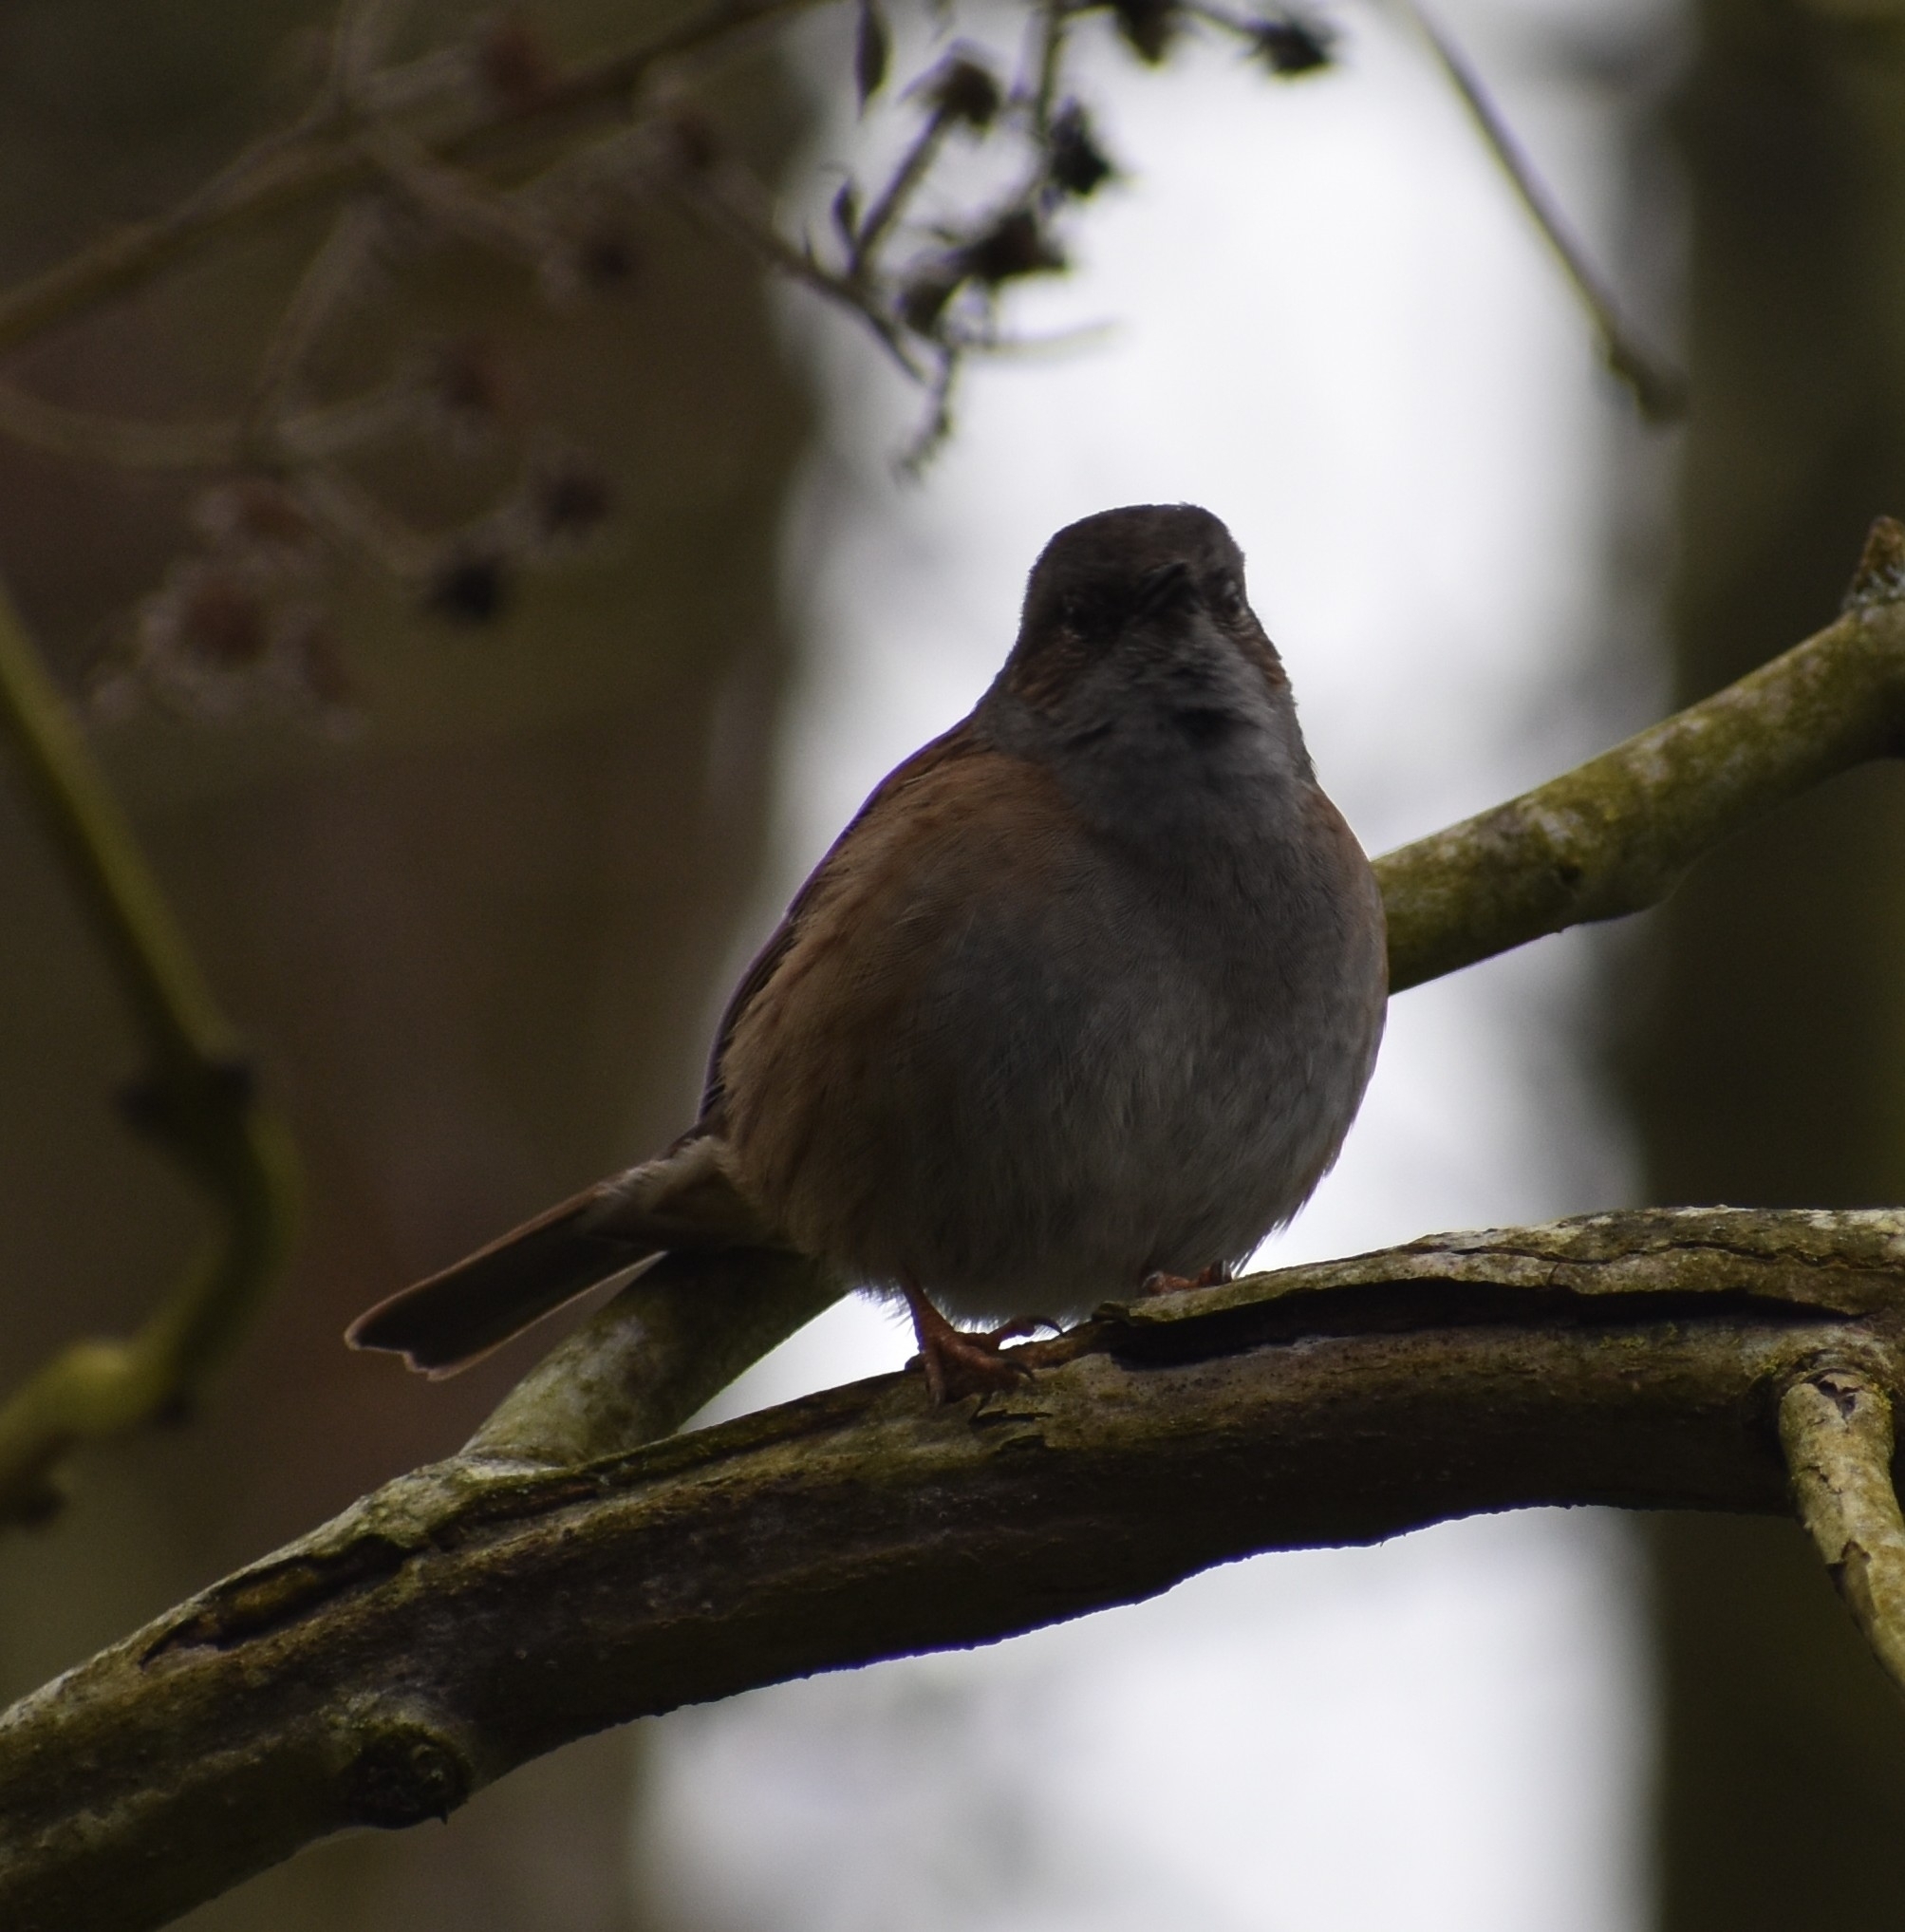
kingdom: Animalia
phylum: Chordata
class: Aves
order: Passeriformes
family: Prunellidae
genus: Prunella
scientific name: Prunella modularis
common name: Dunnock
